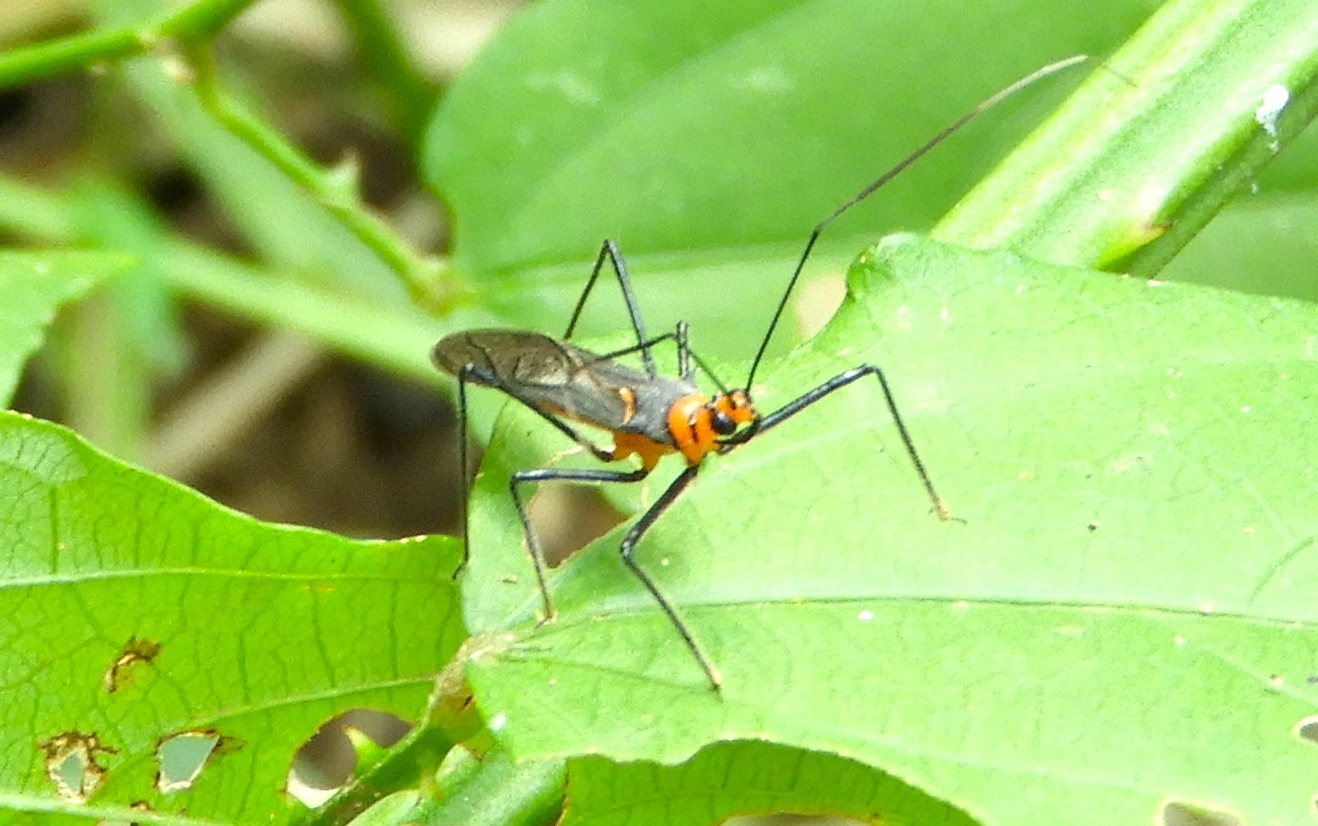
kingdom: Animalia
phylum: Arthropoda
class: Insecta
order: Hemiptera
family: Reduviidae
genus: Repipta
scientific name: Repipta fuscipes
